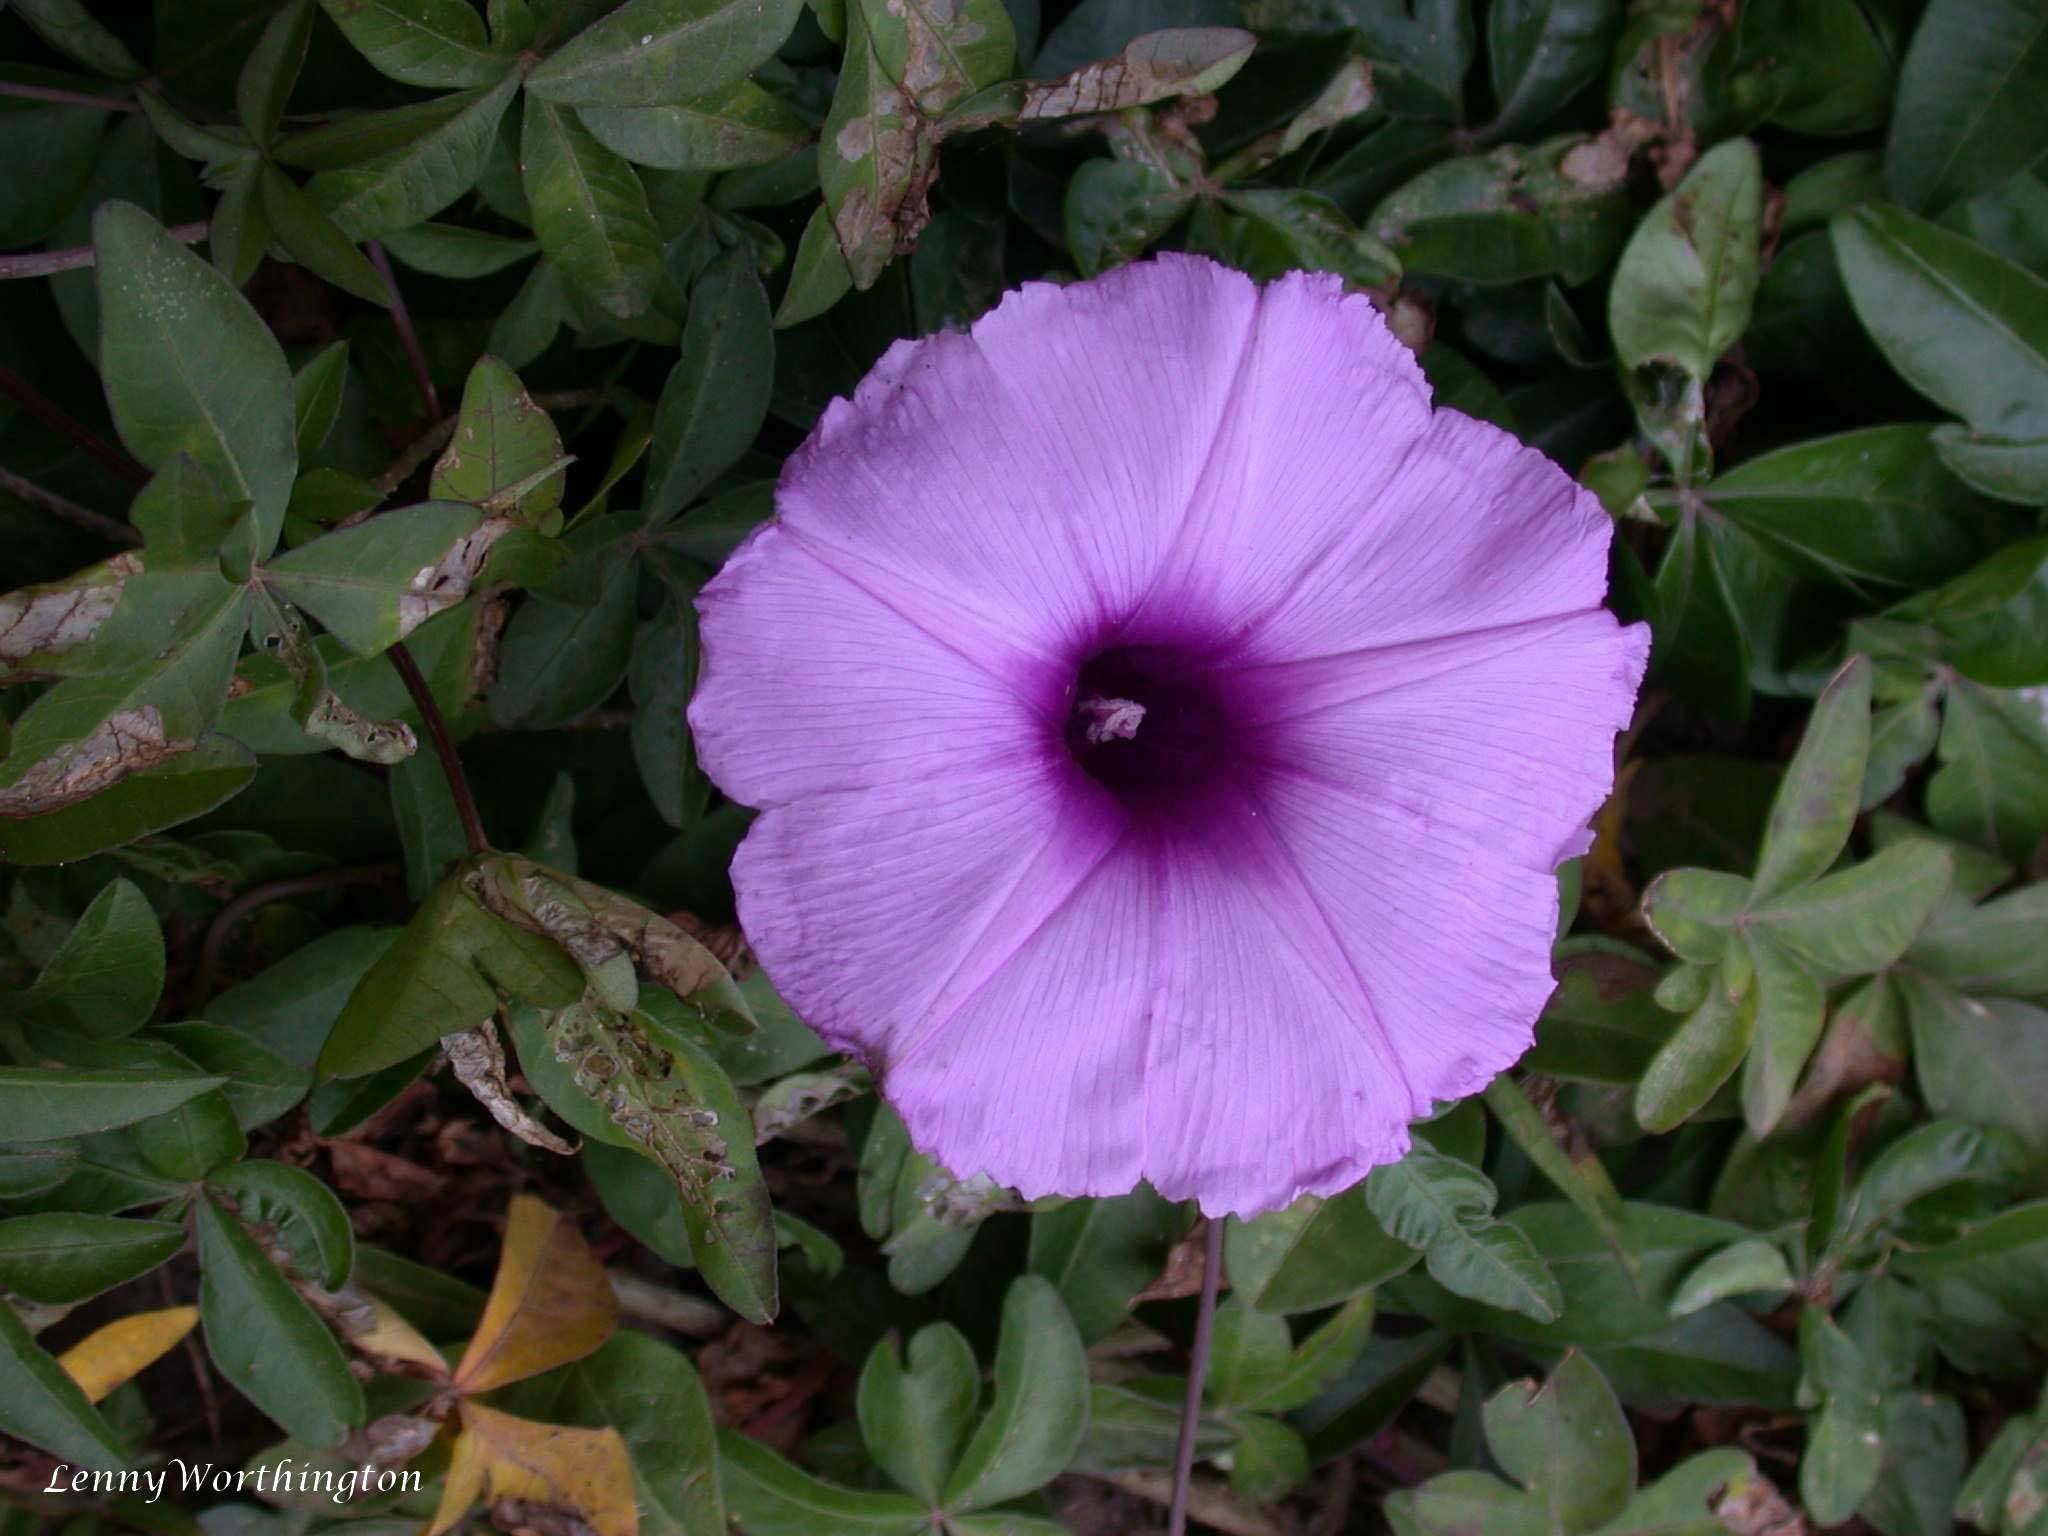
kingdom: Plantae
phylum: Tracheophyta
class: Magnoliopsida
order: Solanales
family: Convolvulaceae
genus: Ipomoea
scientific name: Ipomoea cairica
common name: Mile a minute vine
